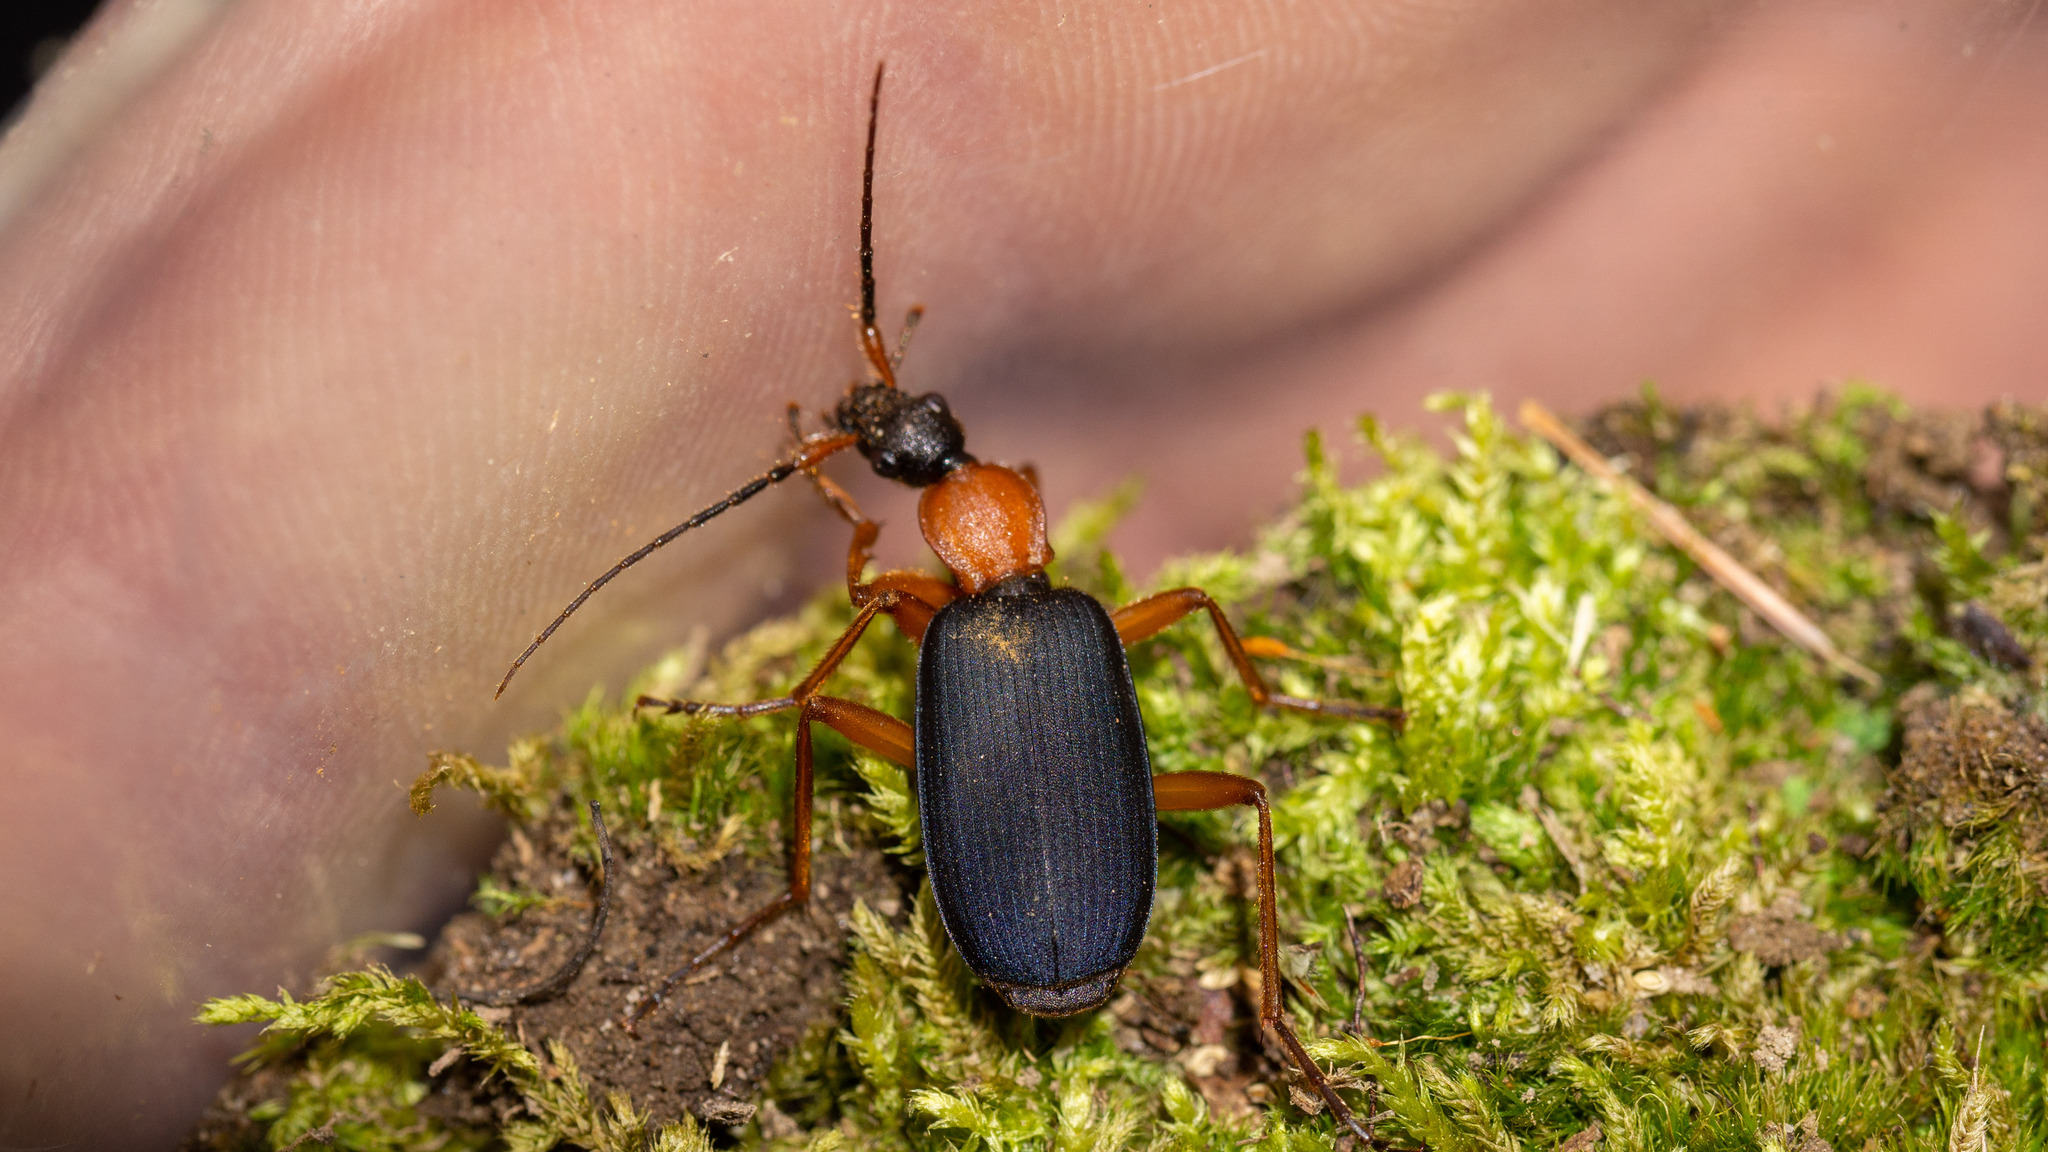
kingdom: Animalia
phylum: Arthropoda
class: Insecta
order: Coleoptera
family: Carabidae
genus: Galerita
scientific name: Galerita janus
